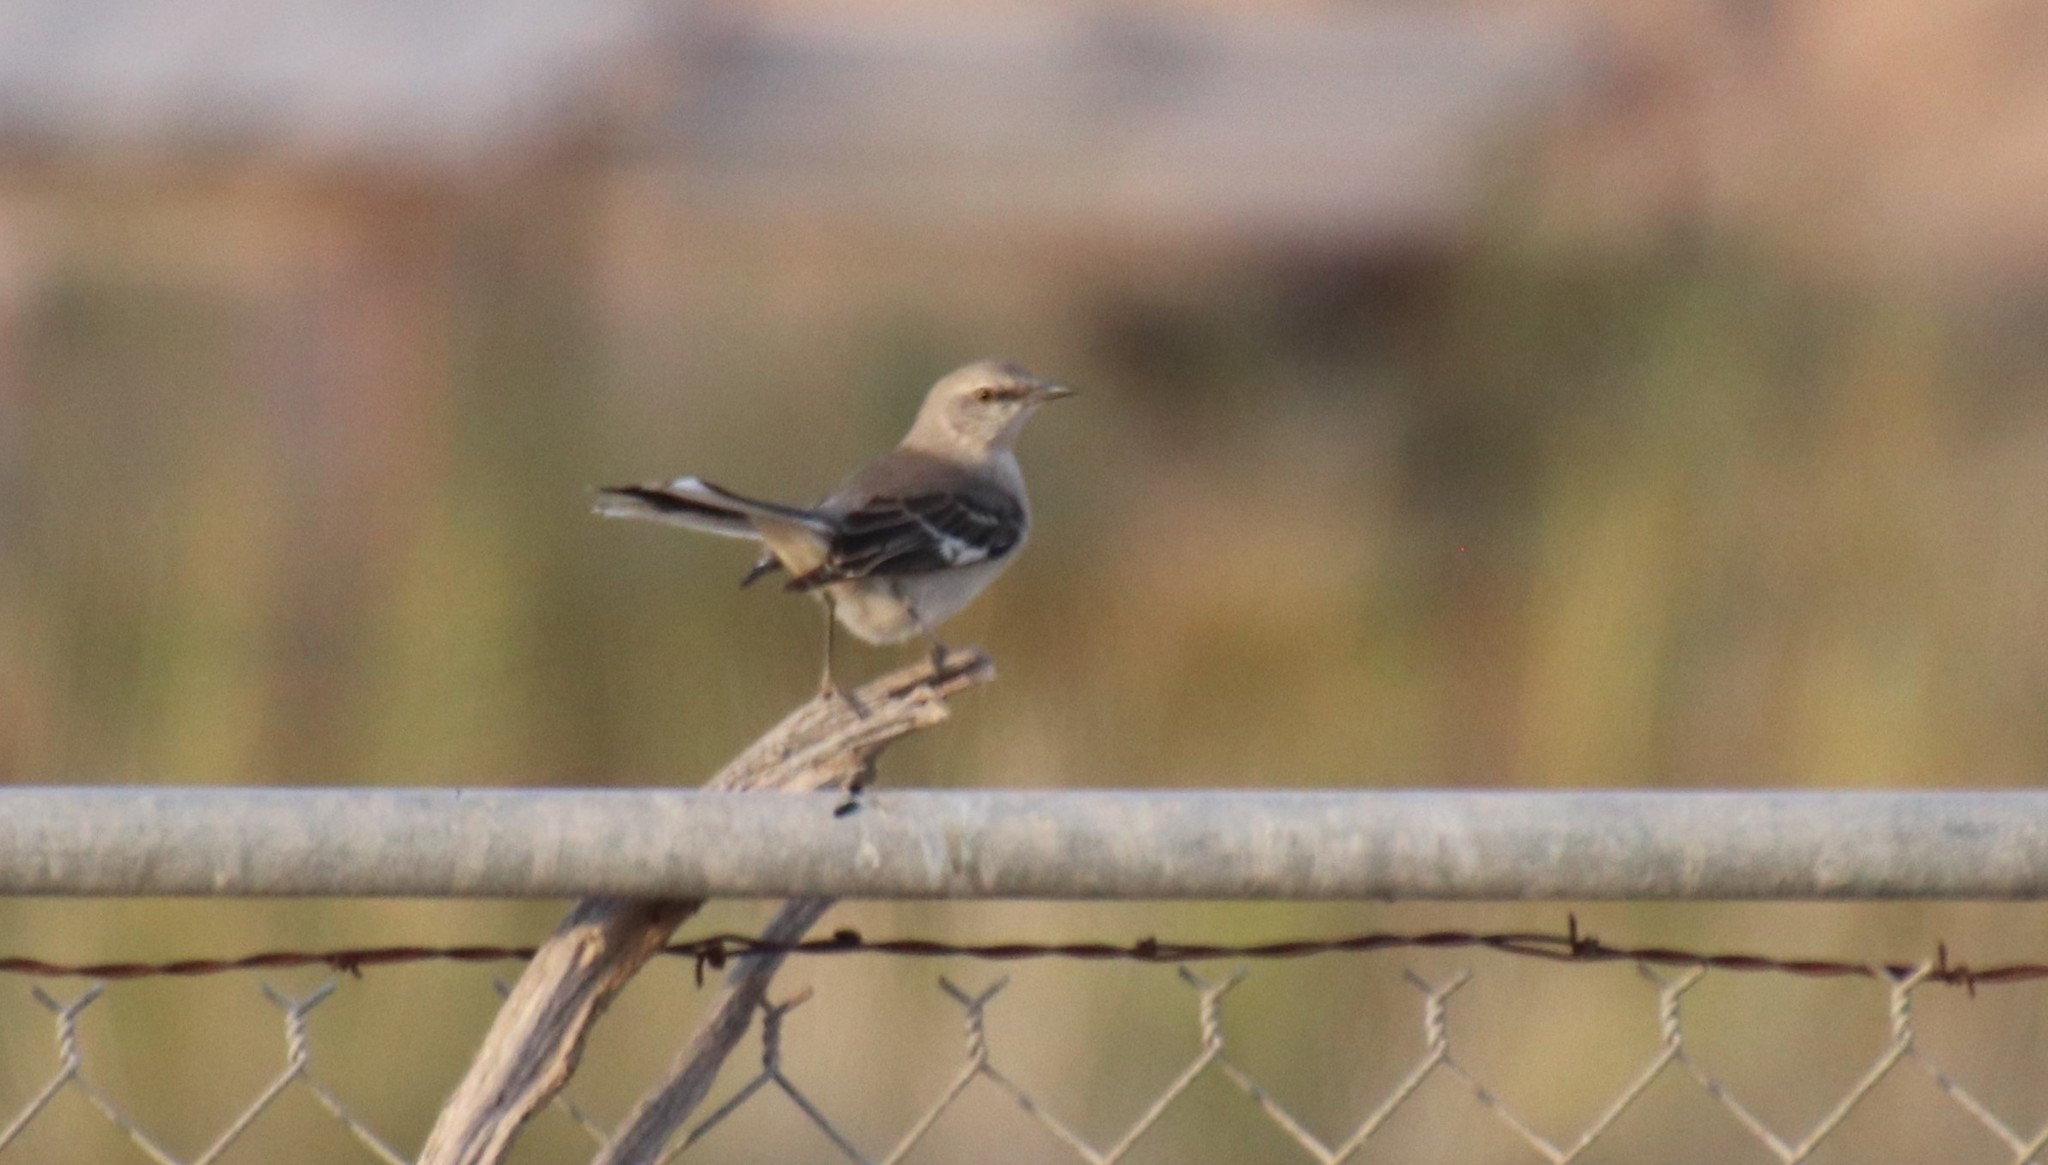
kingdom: Animalia
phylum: Chordata
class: Aves
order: Passeriformes
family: Mimidae
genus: Mimus
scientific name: Mimus polyglottos
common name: Northern mockingbird
